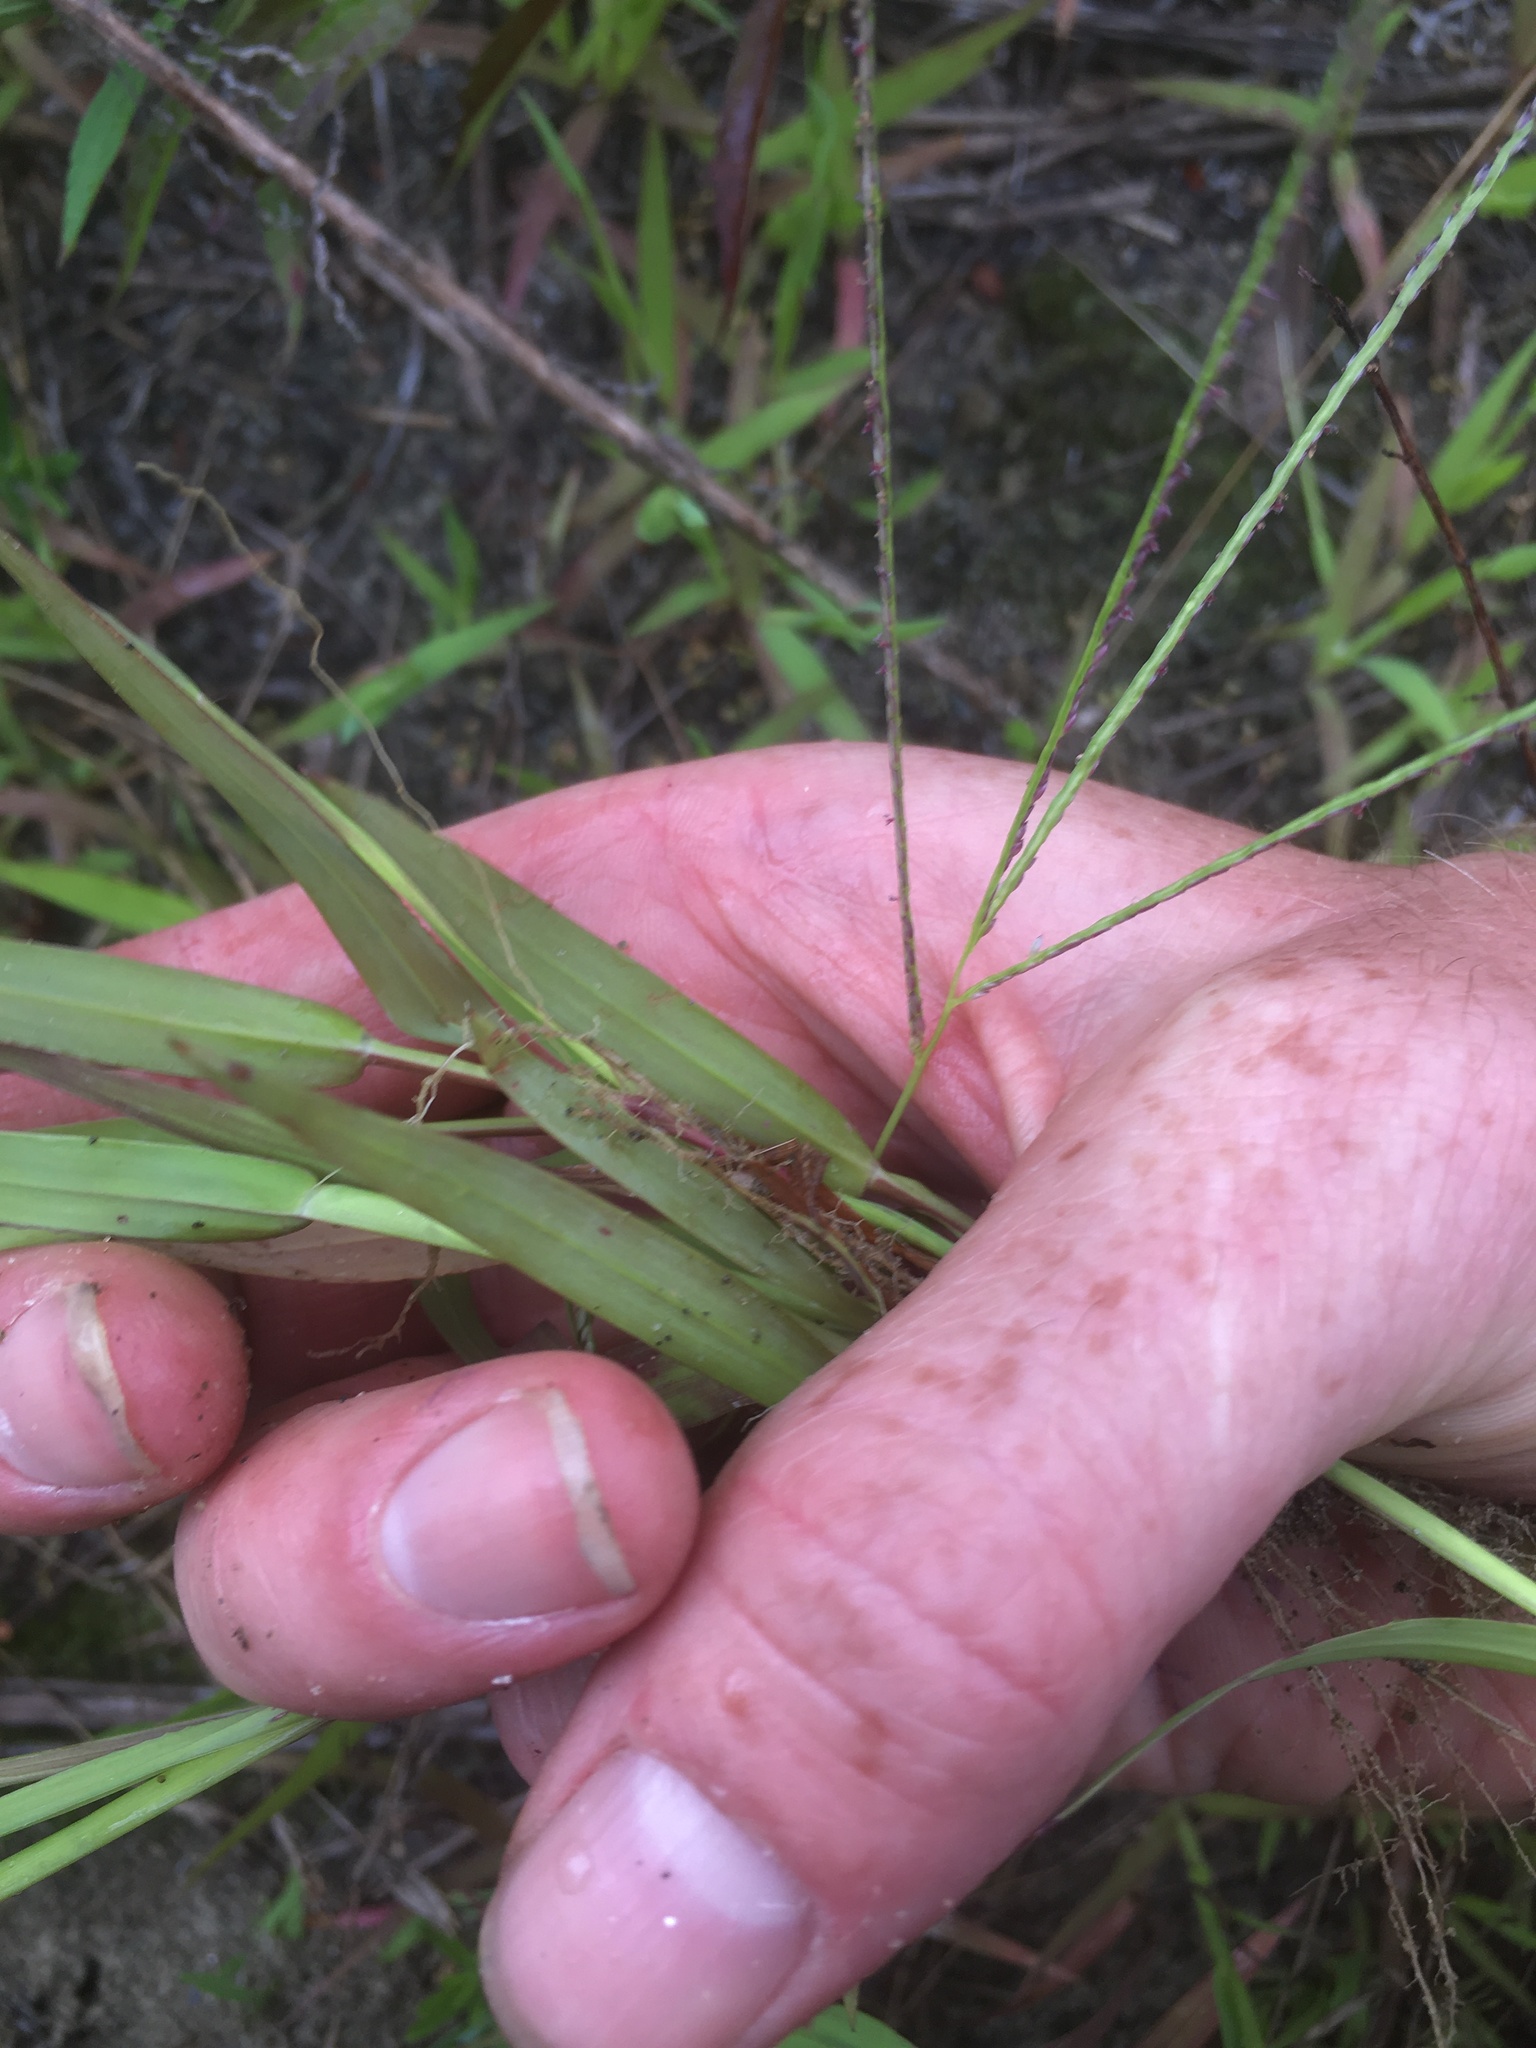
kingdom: Plantae
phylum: Tracheophyta
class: Liliopsida
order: Poales
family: Poaceae
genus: Digitaria
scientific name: Digitaria ischaemum
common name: Smooth crabgrass
